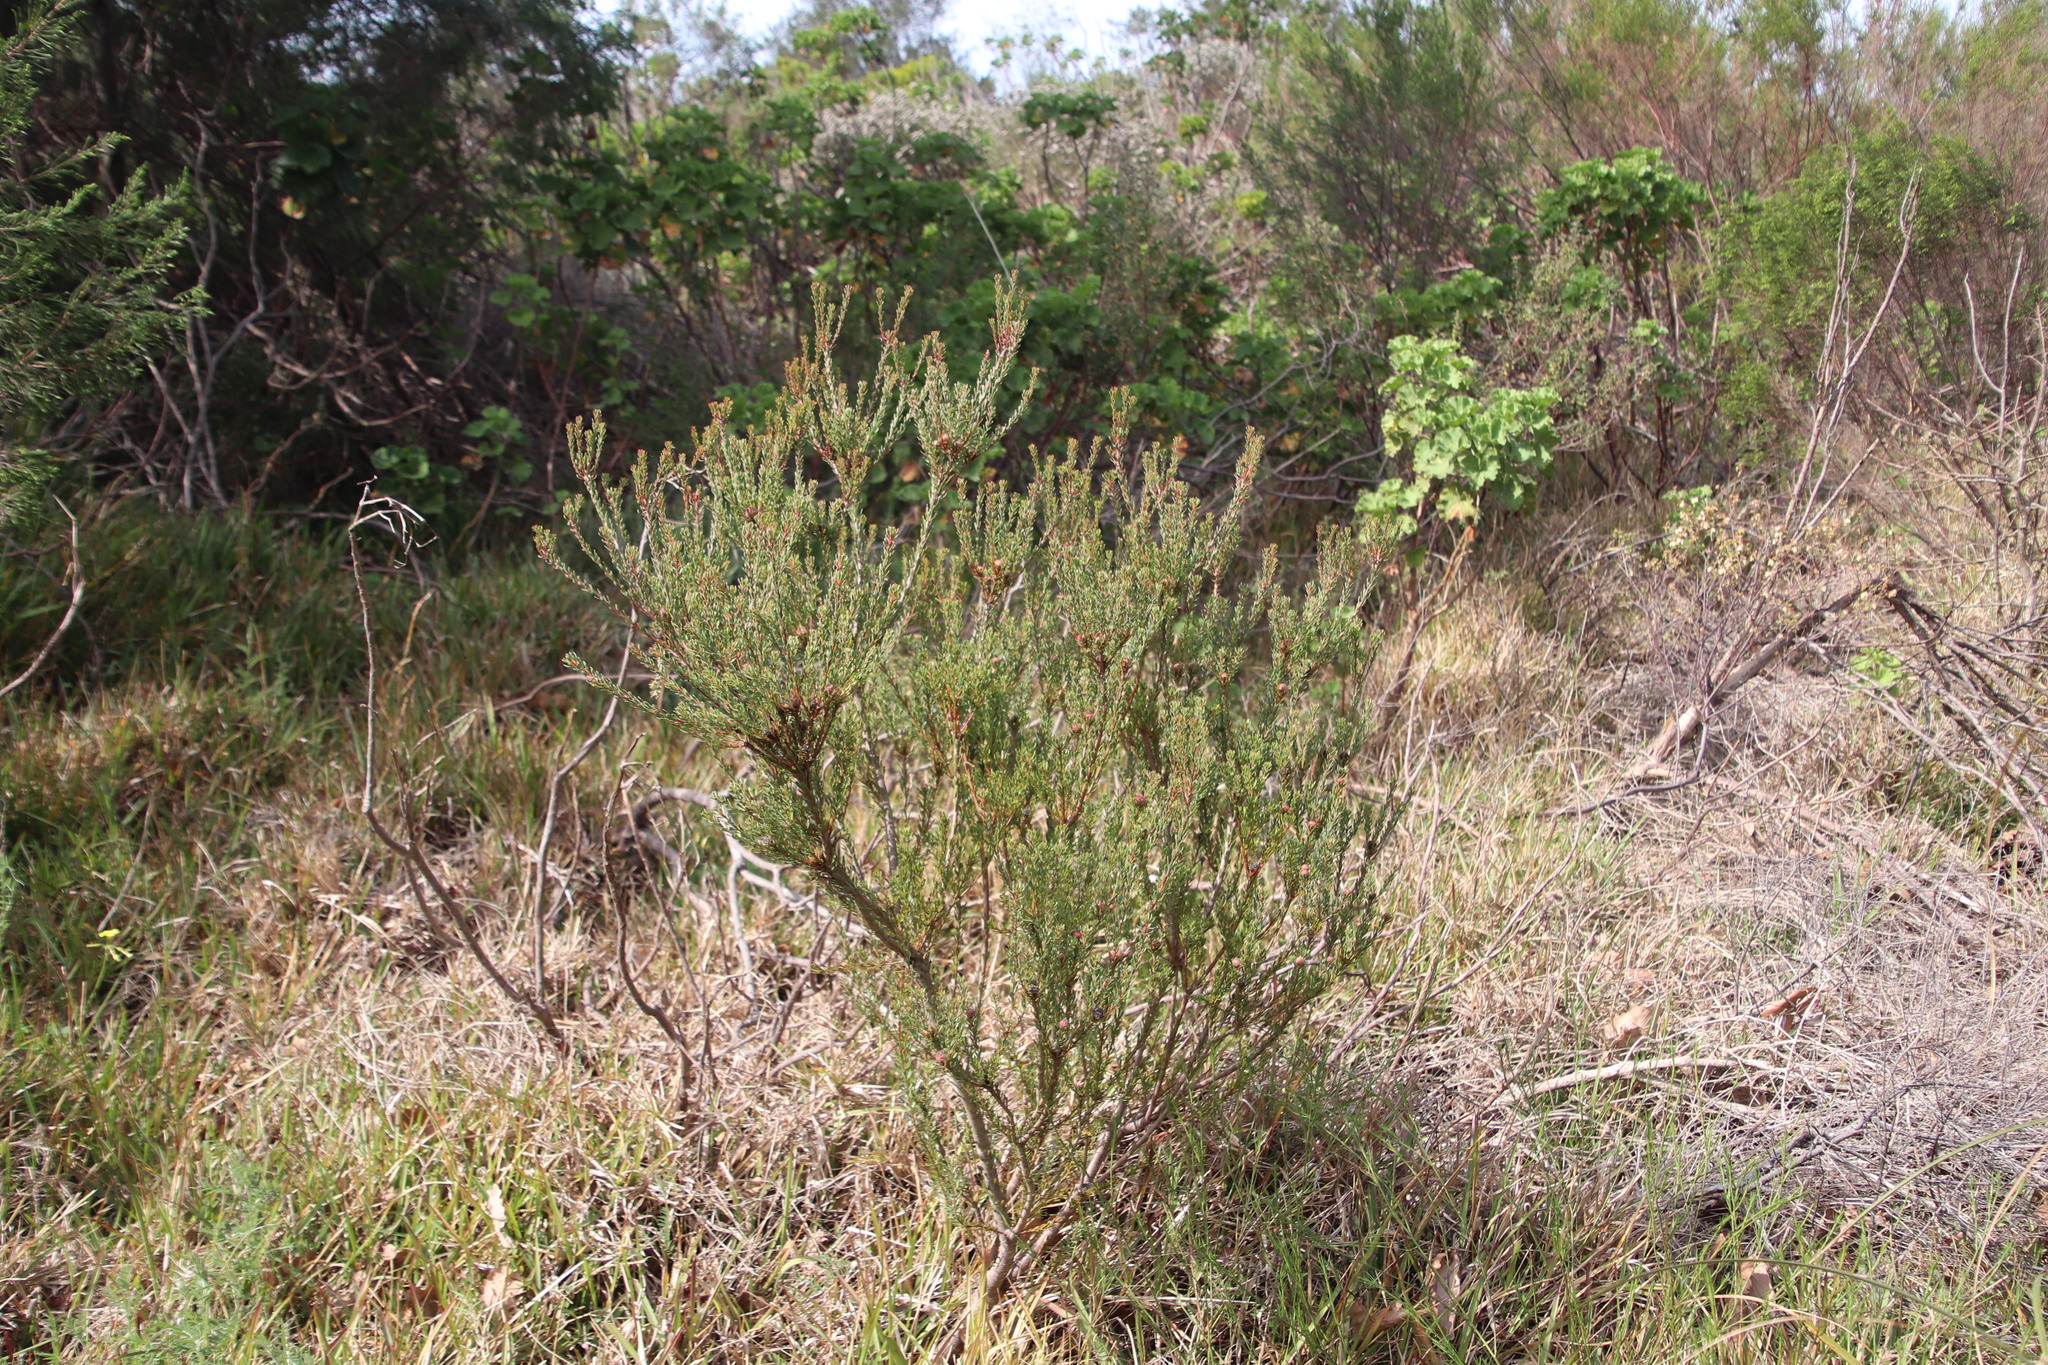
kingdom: Plantae
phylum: Tracheophyta
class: Magnoliopsida
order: Proteales
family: Proteaceae
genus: Leucadendron
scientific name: Leucadendron levisanus
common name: Cape flats conebush
